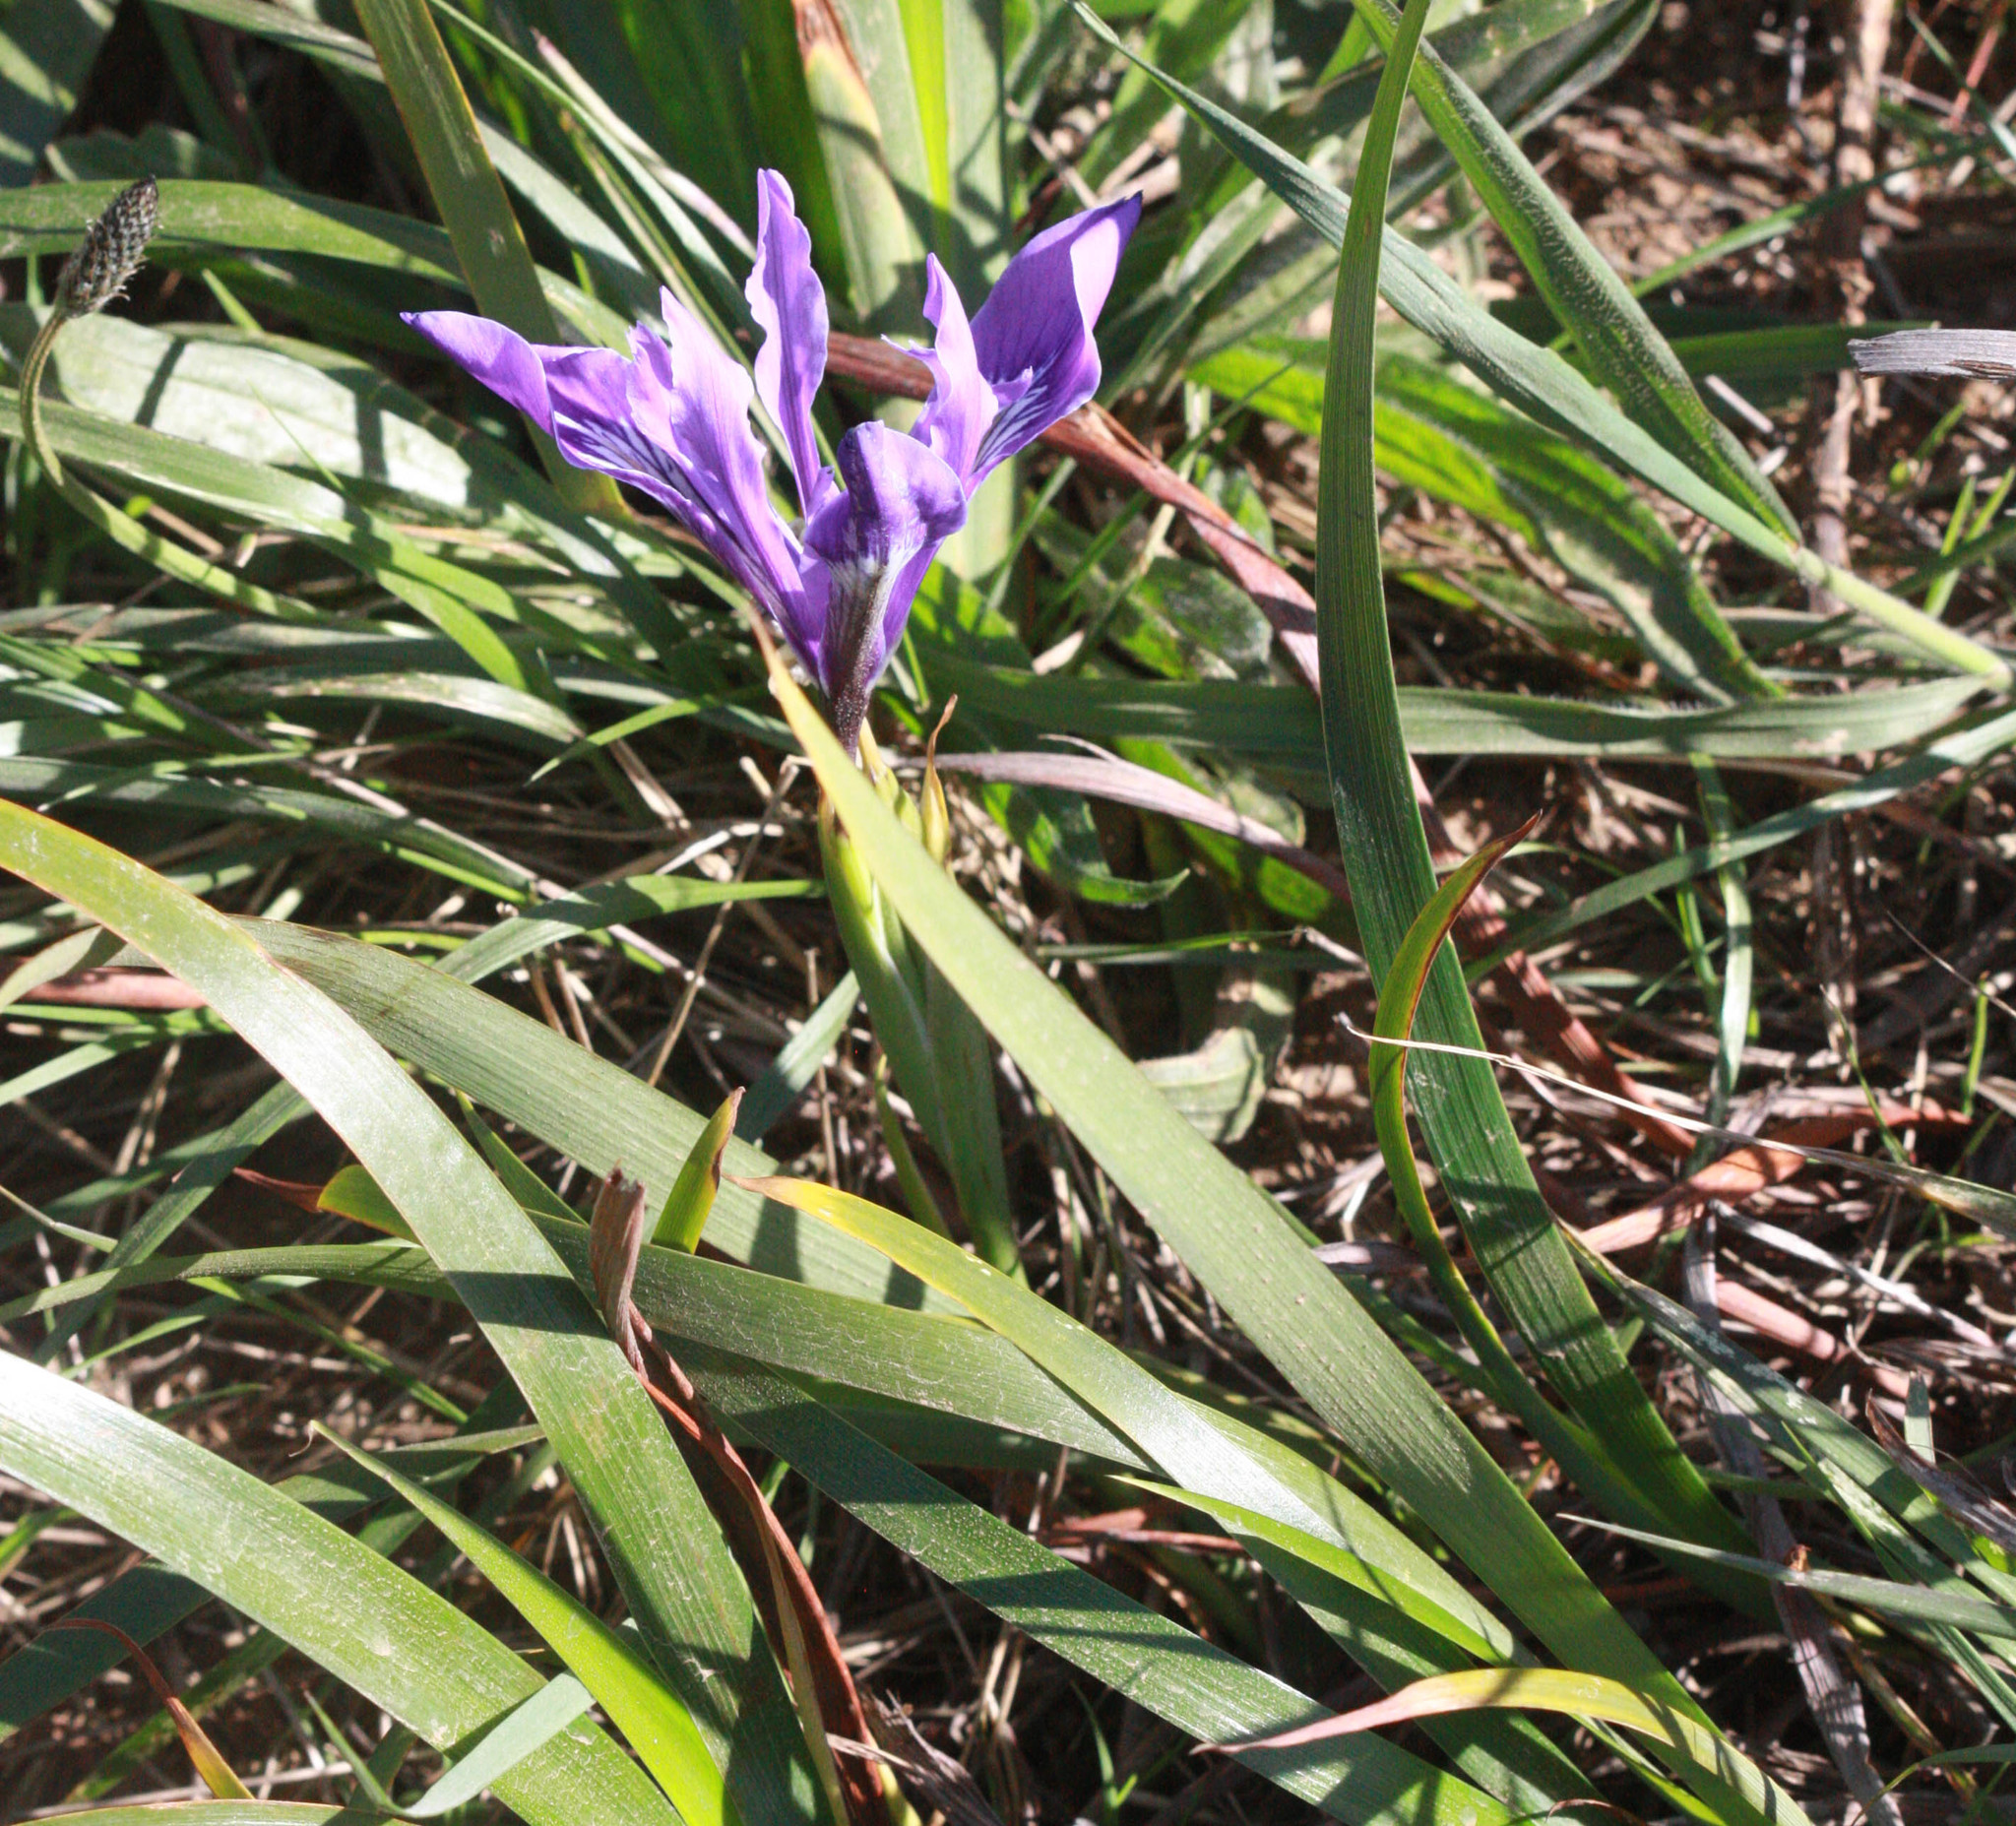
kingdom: Plantae
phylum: Tracheophyta
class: Liliopsida
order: Asparagales
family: Iridaceae
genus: Iris
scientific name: Iris douglasiana
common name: Marin iris
